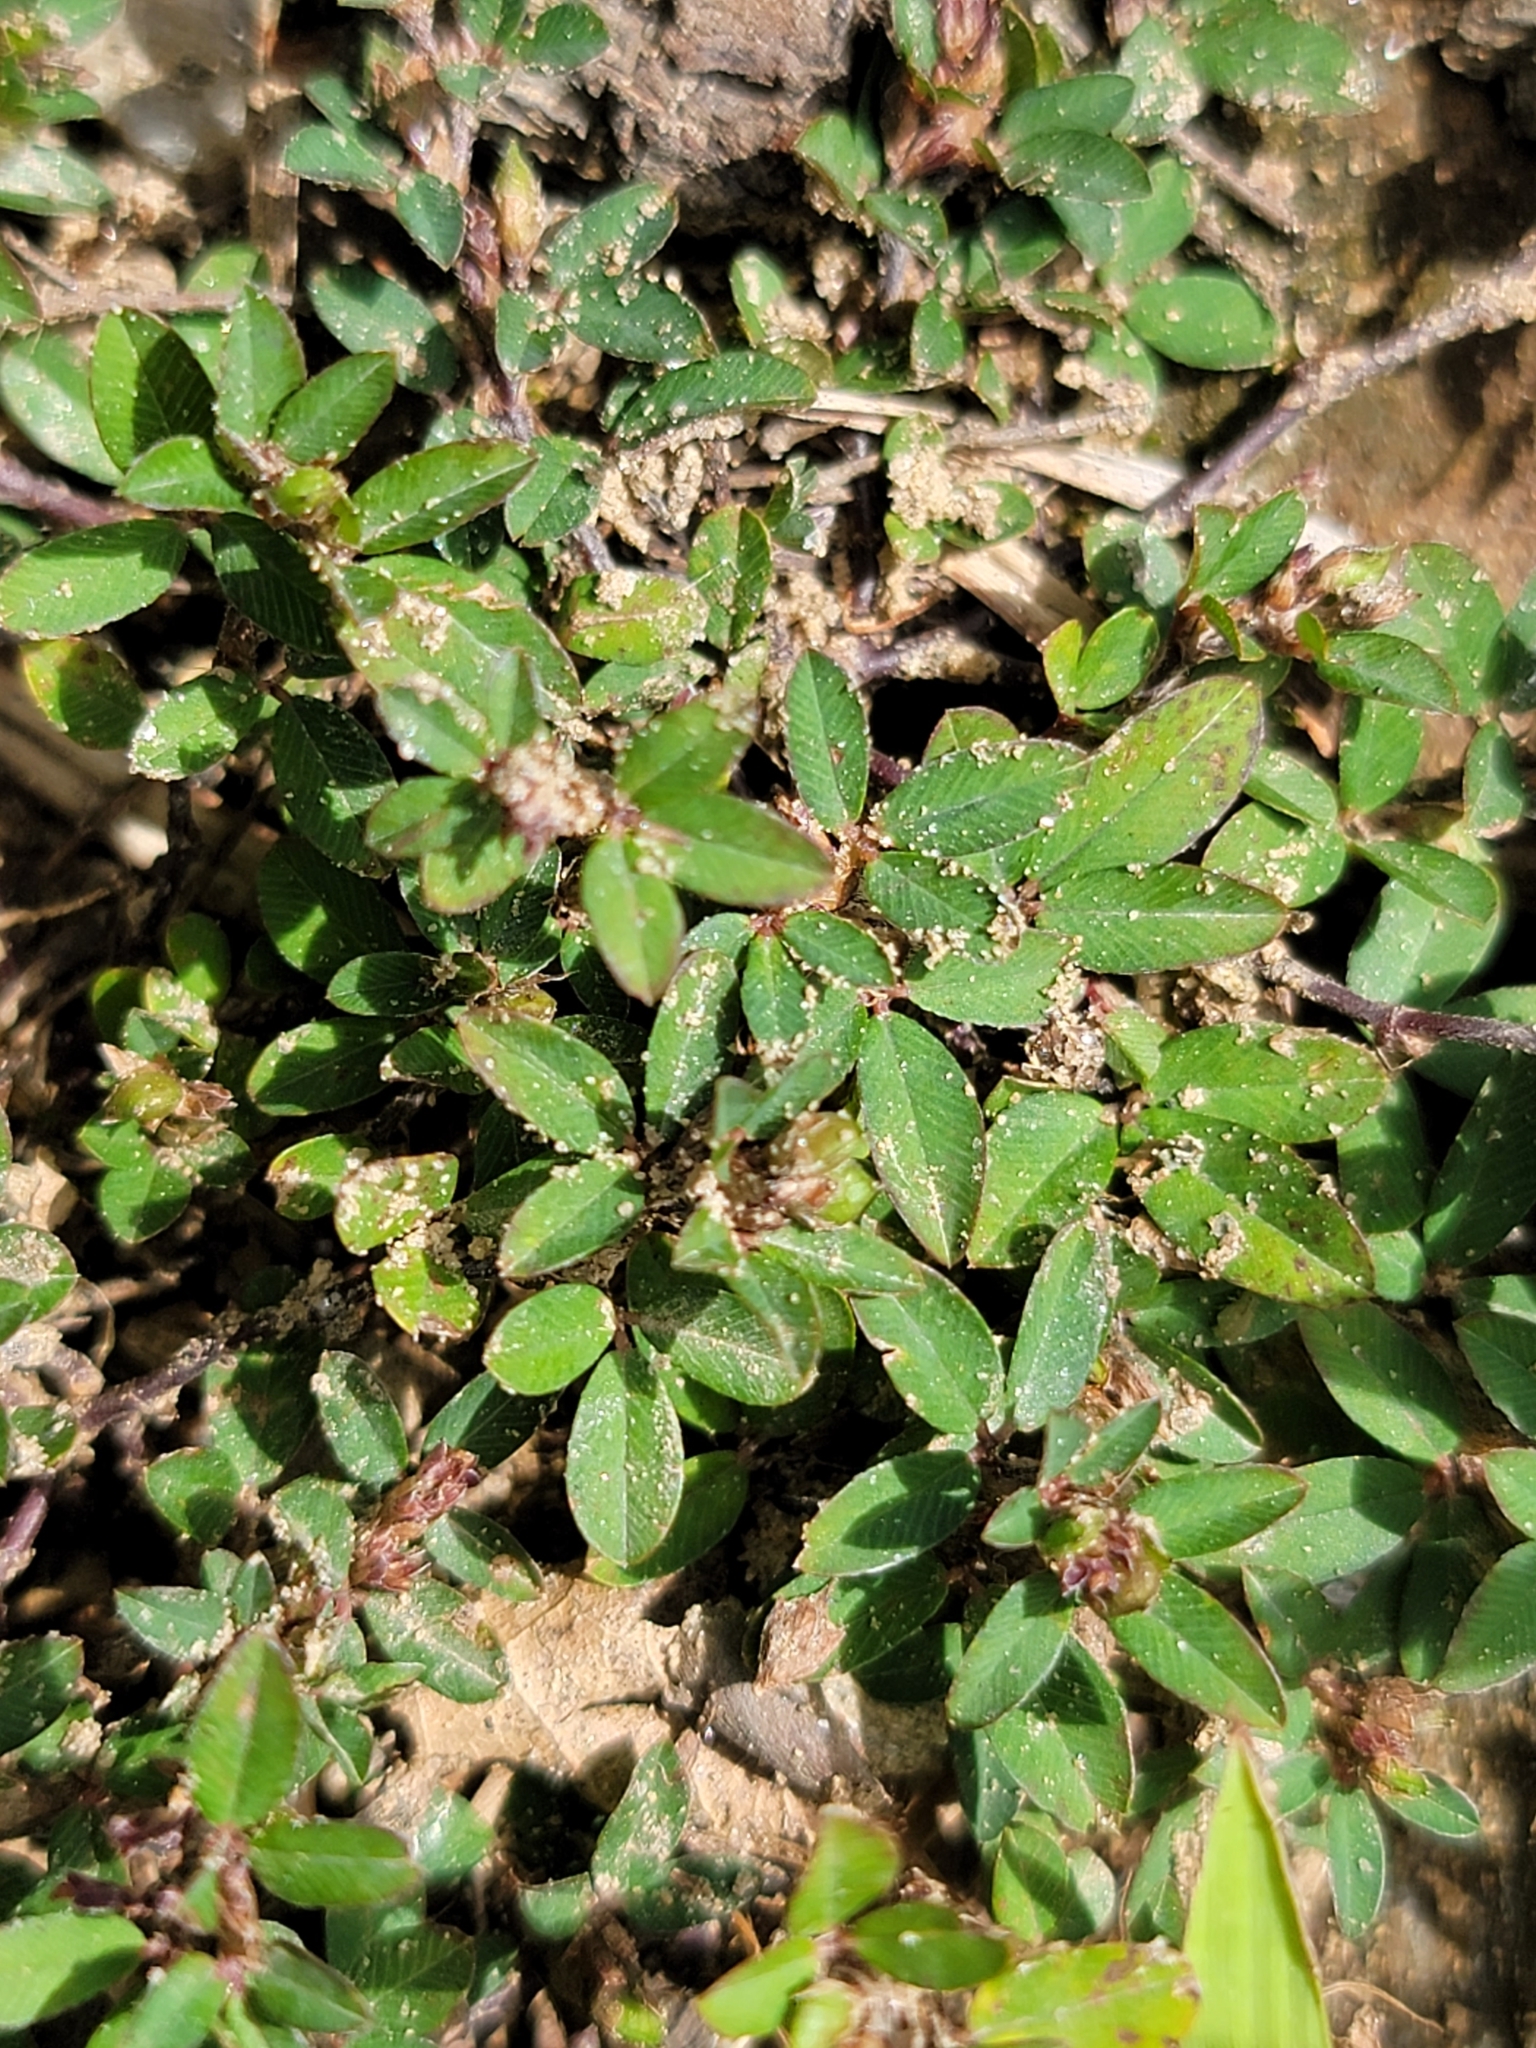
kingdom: Plantae
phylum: Tracheophyta
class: Magnoliopsida
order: Fabales
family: Fabaceae
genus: Kummerowia
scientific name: Kummerowia striata
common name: Japanese clover
